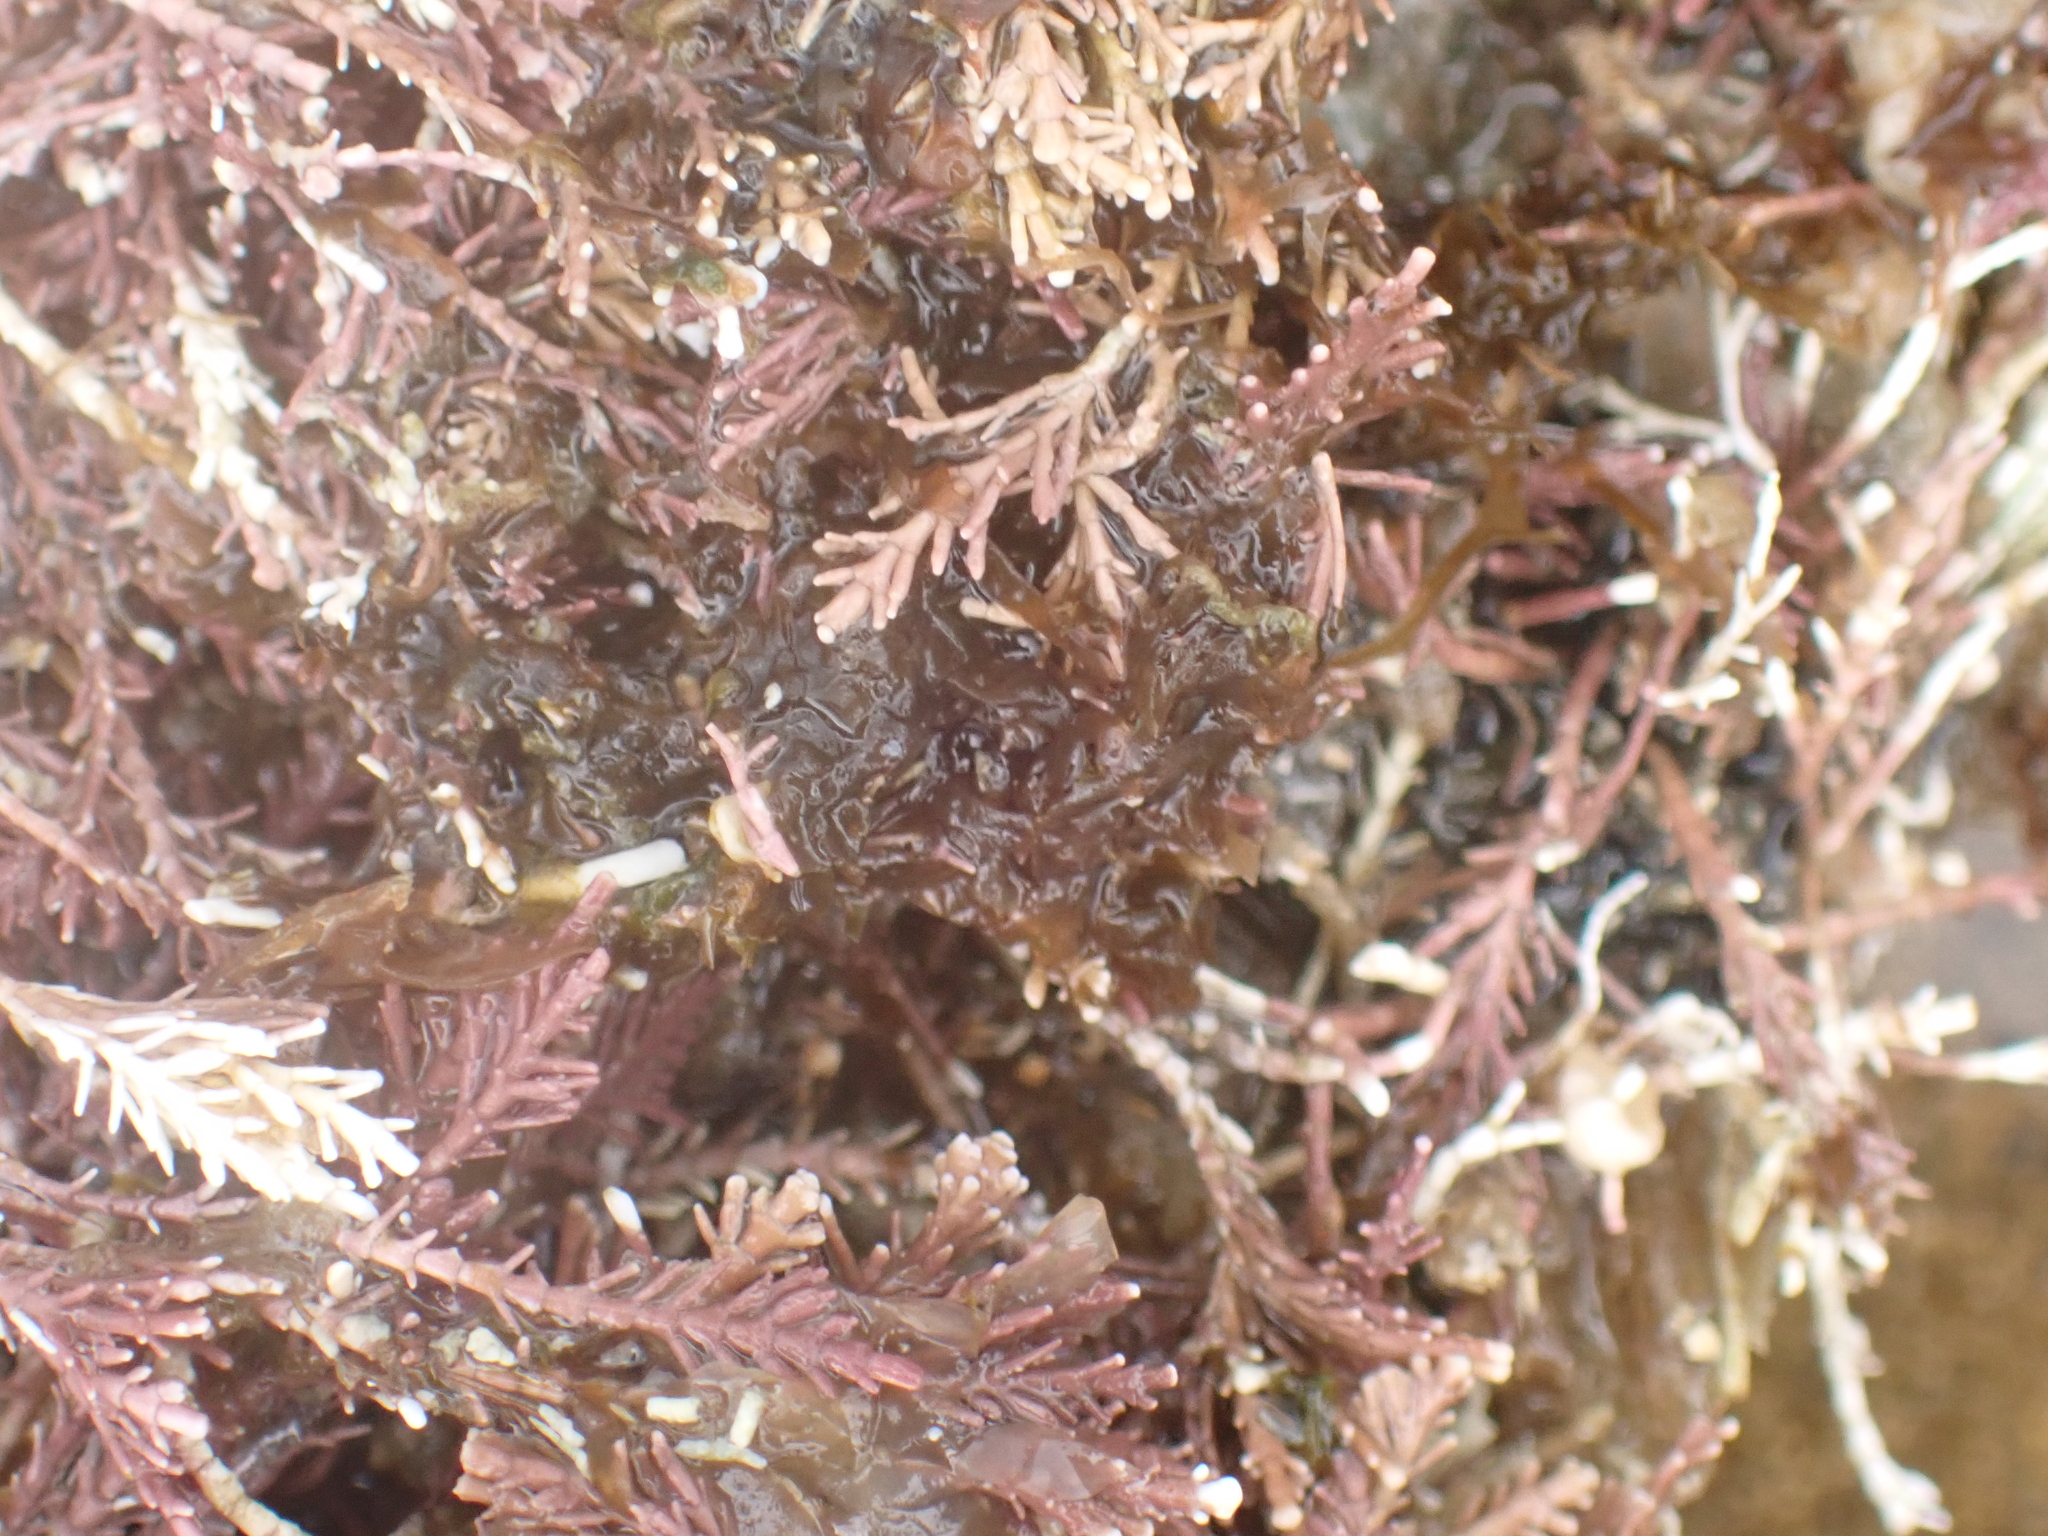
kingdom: Plantae
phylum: Rhodophyta
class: Florideophyceae
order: Corallinales
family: Corallinaceae
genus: Corallina
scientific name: Corallina officinalis
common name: Coral weed
